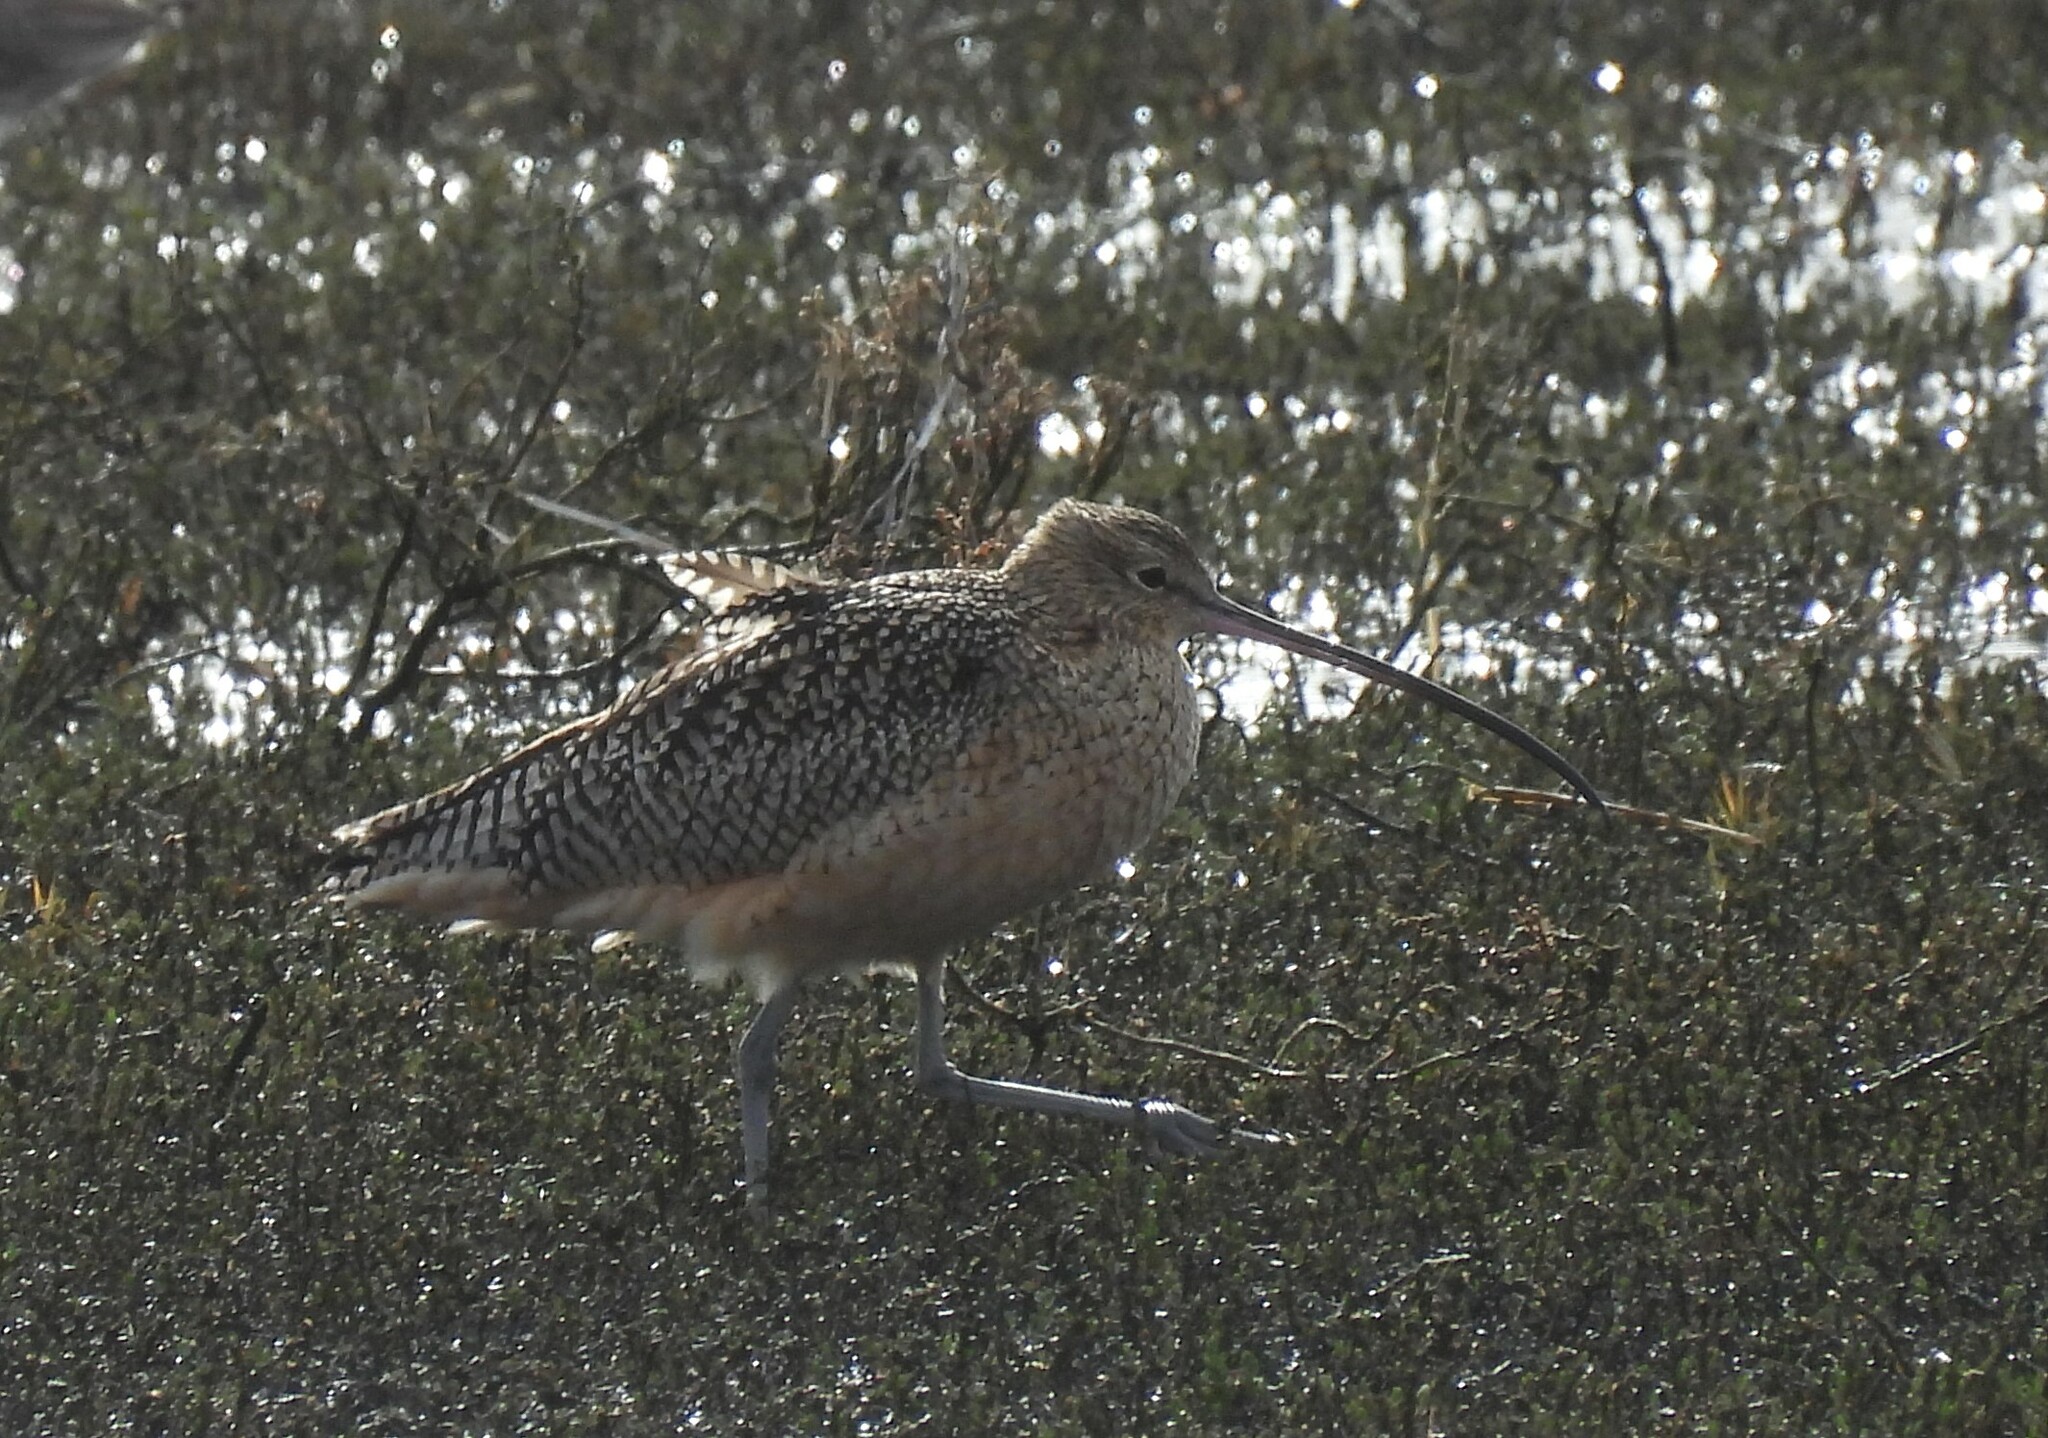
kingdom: Animalia
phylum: Chordata
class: Aves
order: Charadriiformes
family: Scolopacidae
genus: Numenius
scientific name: Numenius americanus
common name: Long-billed curlew
